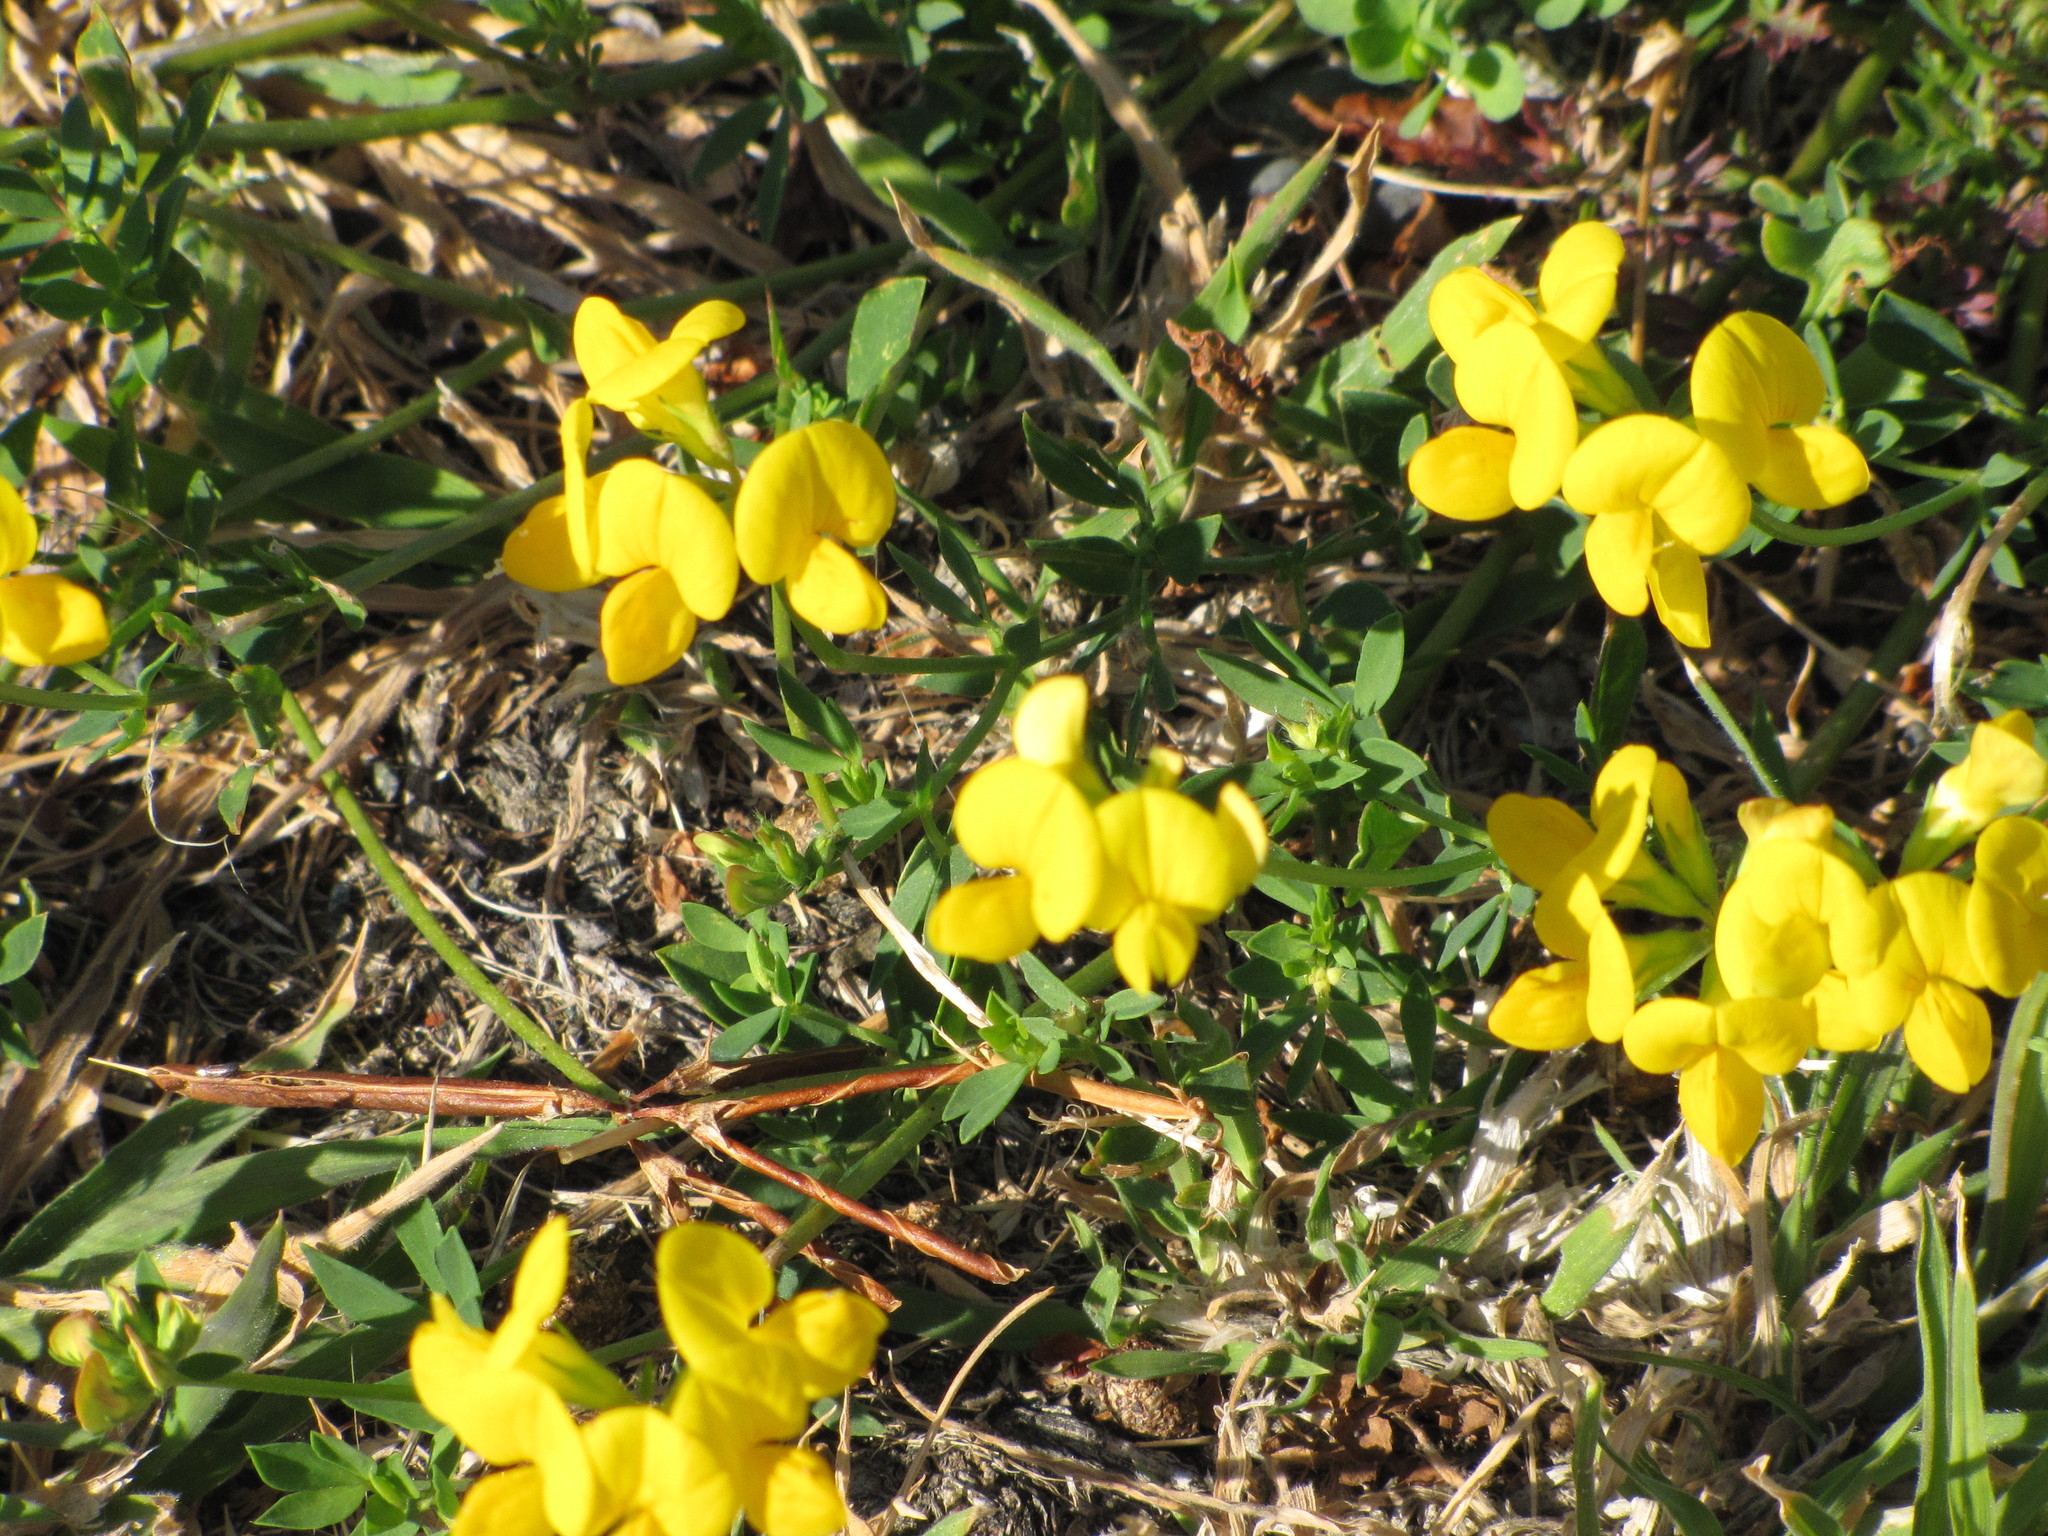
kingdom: Plantae
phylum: Tracheophyta
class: Magnoliopsida
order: Fabales
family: Fabaceae
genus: Lotus
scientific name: Lotus corniculatus
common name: Common bird's-foot-trefoil
